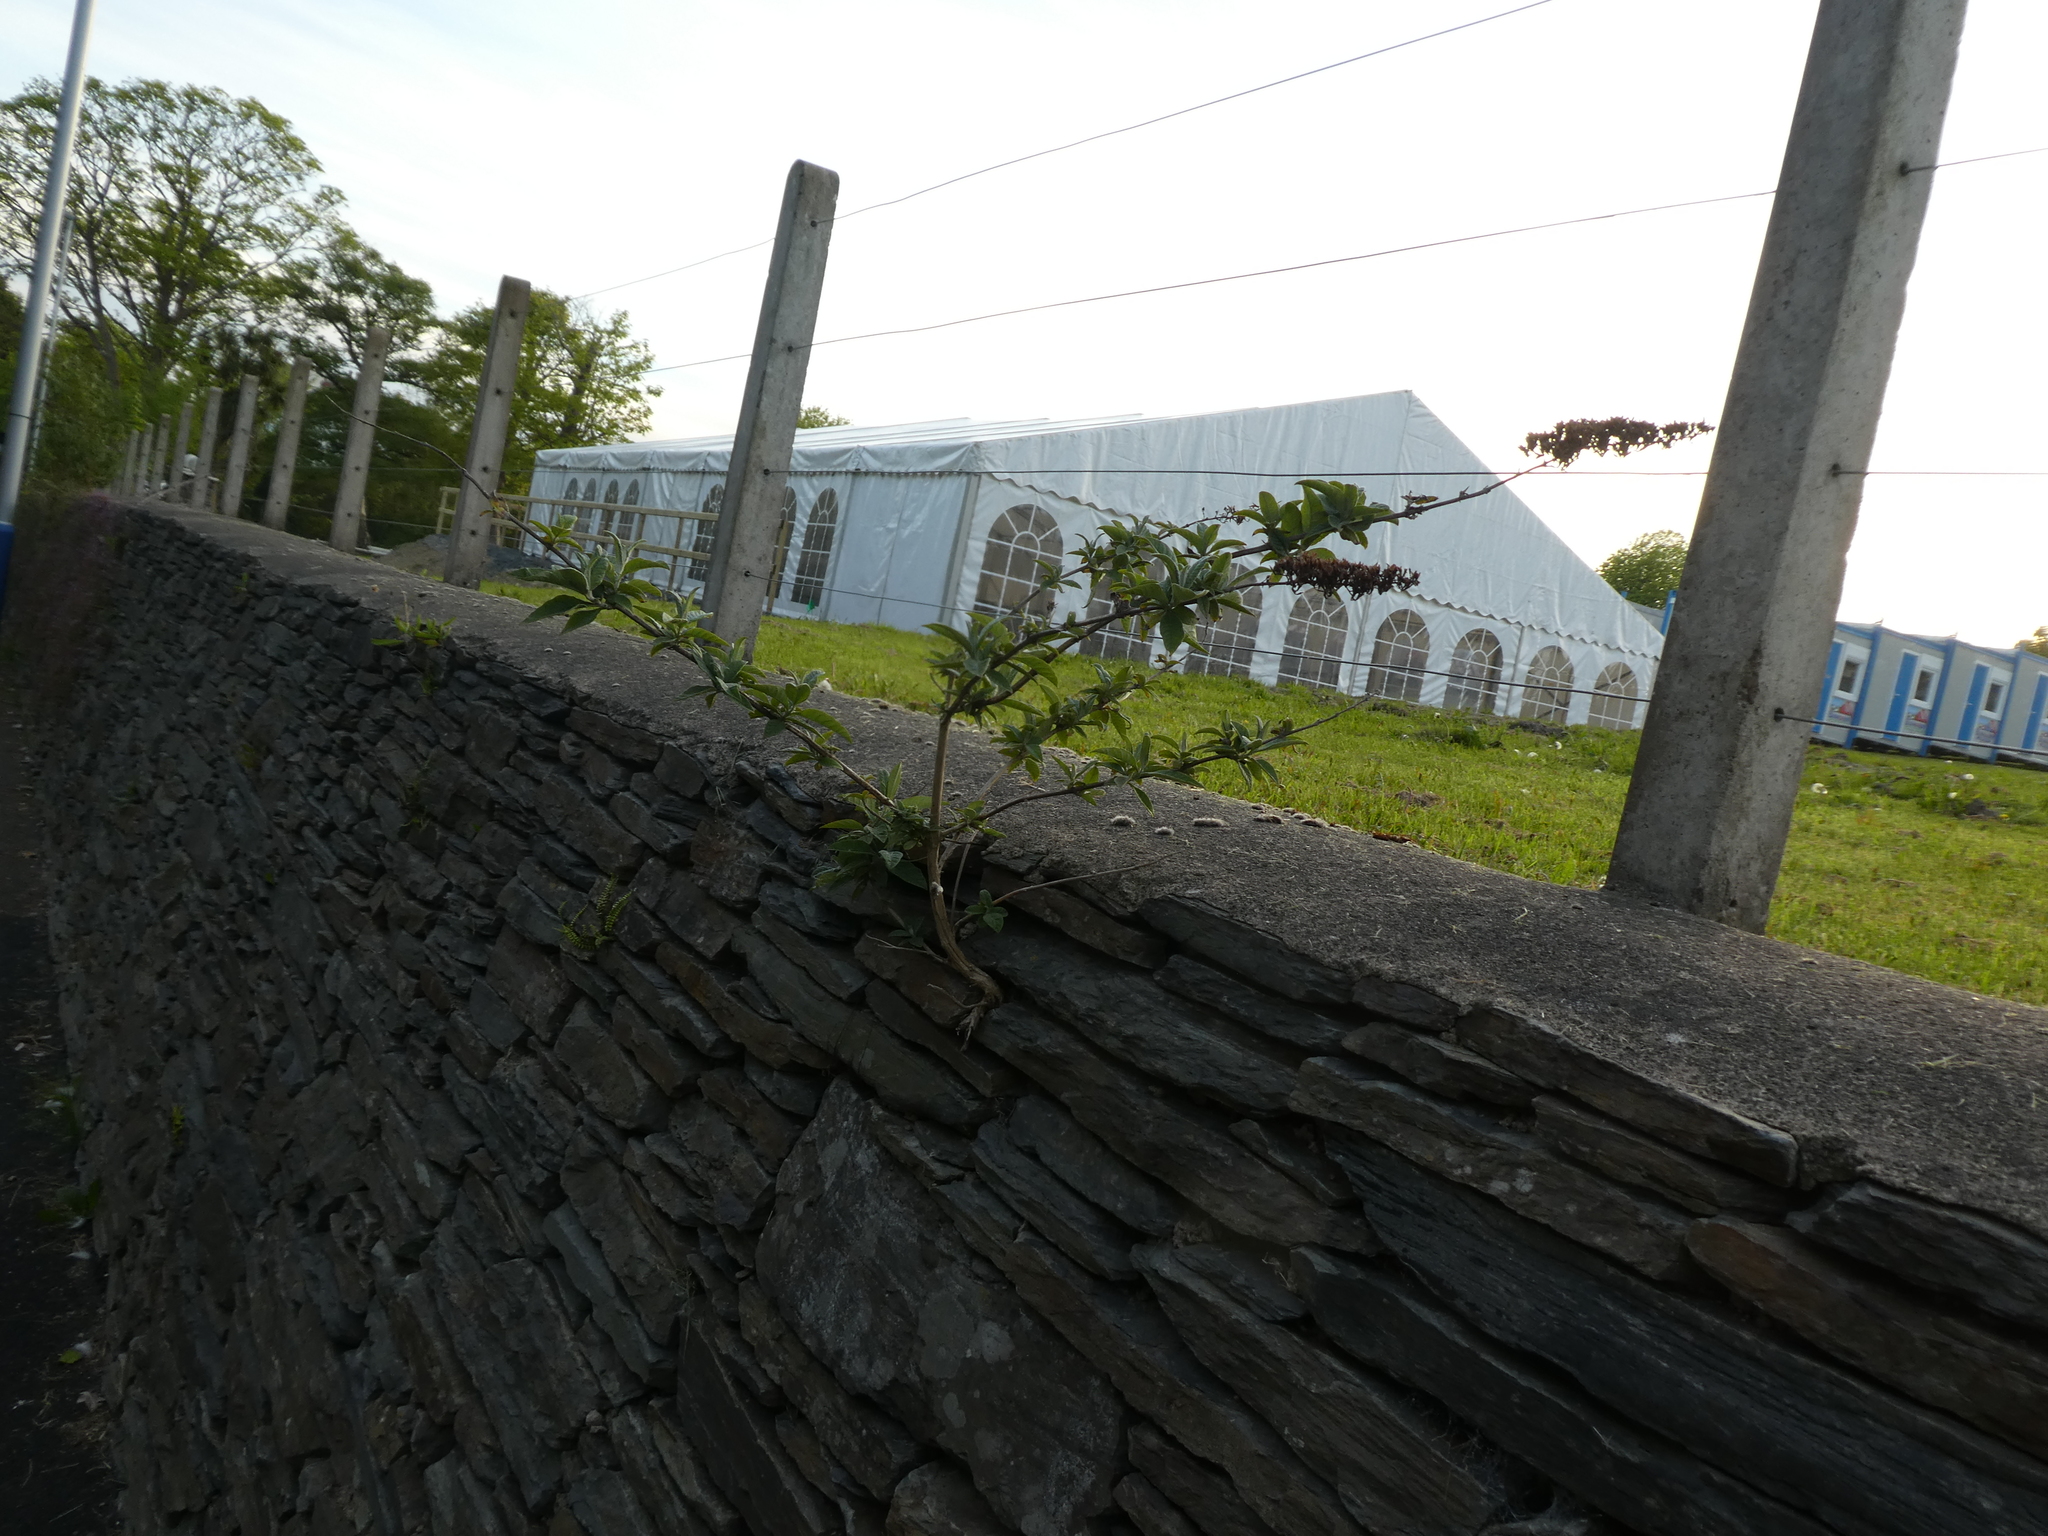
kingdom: Plantae
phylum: Tracheophyta
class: Magnoliopsida
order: Lamiales
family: Scrophulariaceae
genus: Buddleja
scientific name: Buddleja davidii
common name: Butterfly-bush
